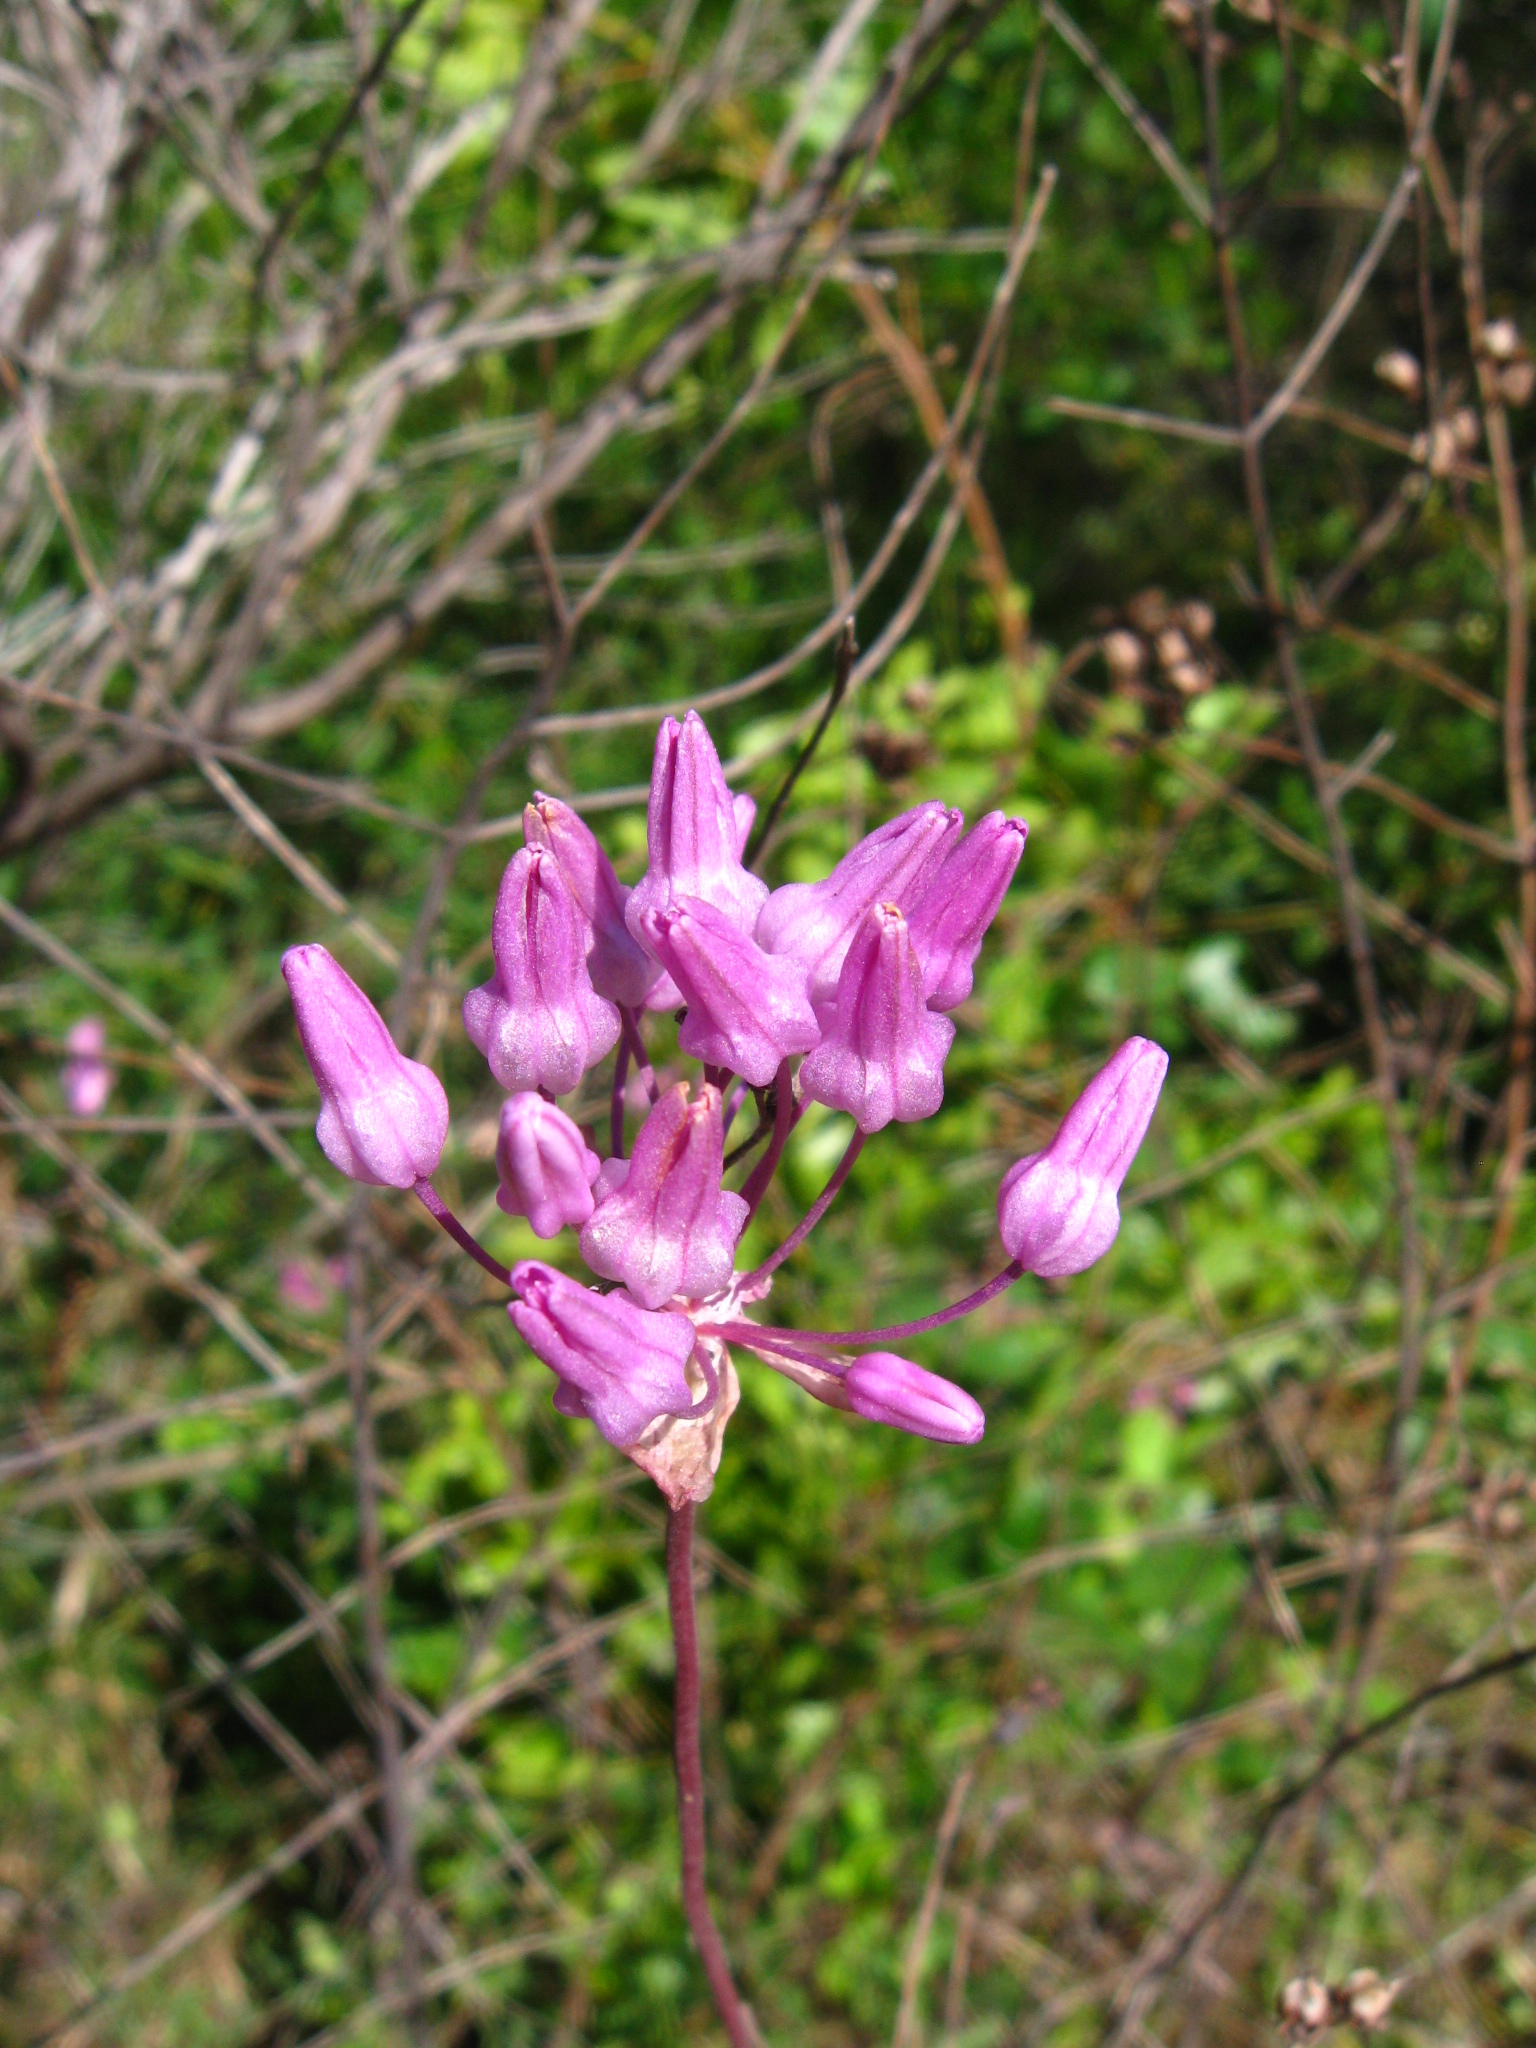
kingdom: Plantae
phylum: Tracheophyta
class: Liliopsida
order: Asparagales
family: Asparagaceae
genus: Dichelostemma
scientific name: Dichelostemma volubile
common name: Trining brodiaea
